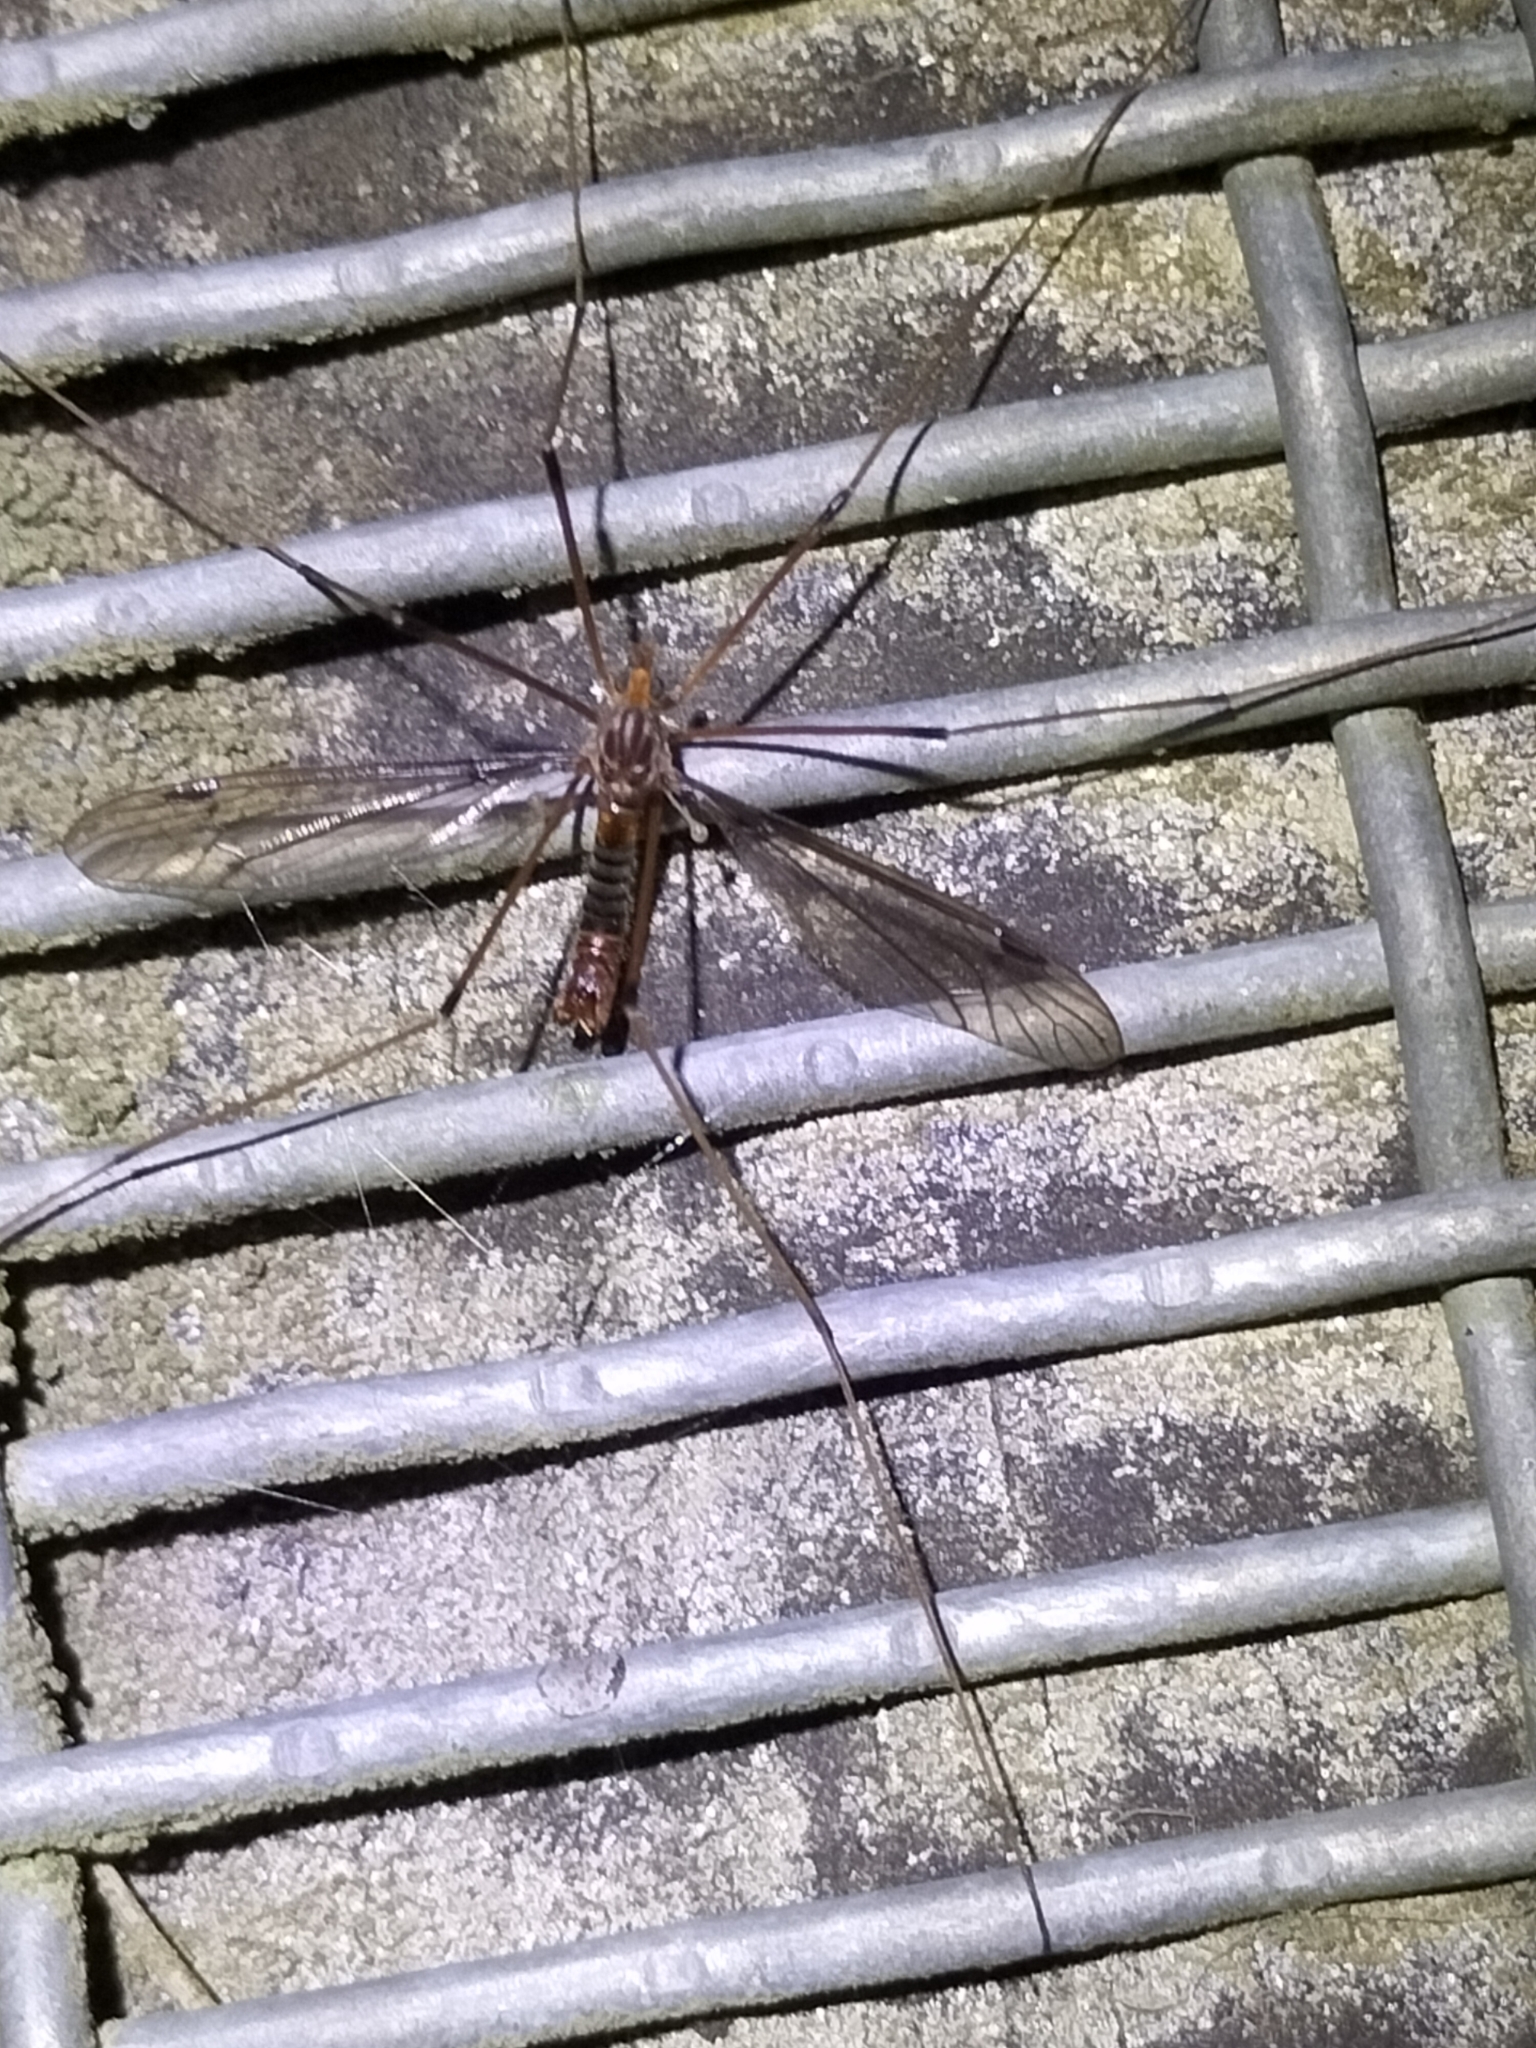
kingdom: Animalia
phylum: Arthropoda
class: Insecta
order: Diptera
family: Tipulidae
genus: Leptotarsus
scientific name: Leptotarsus heterogamus
